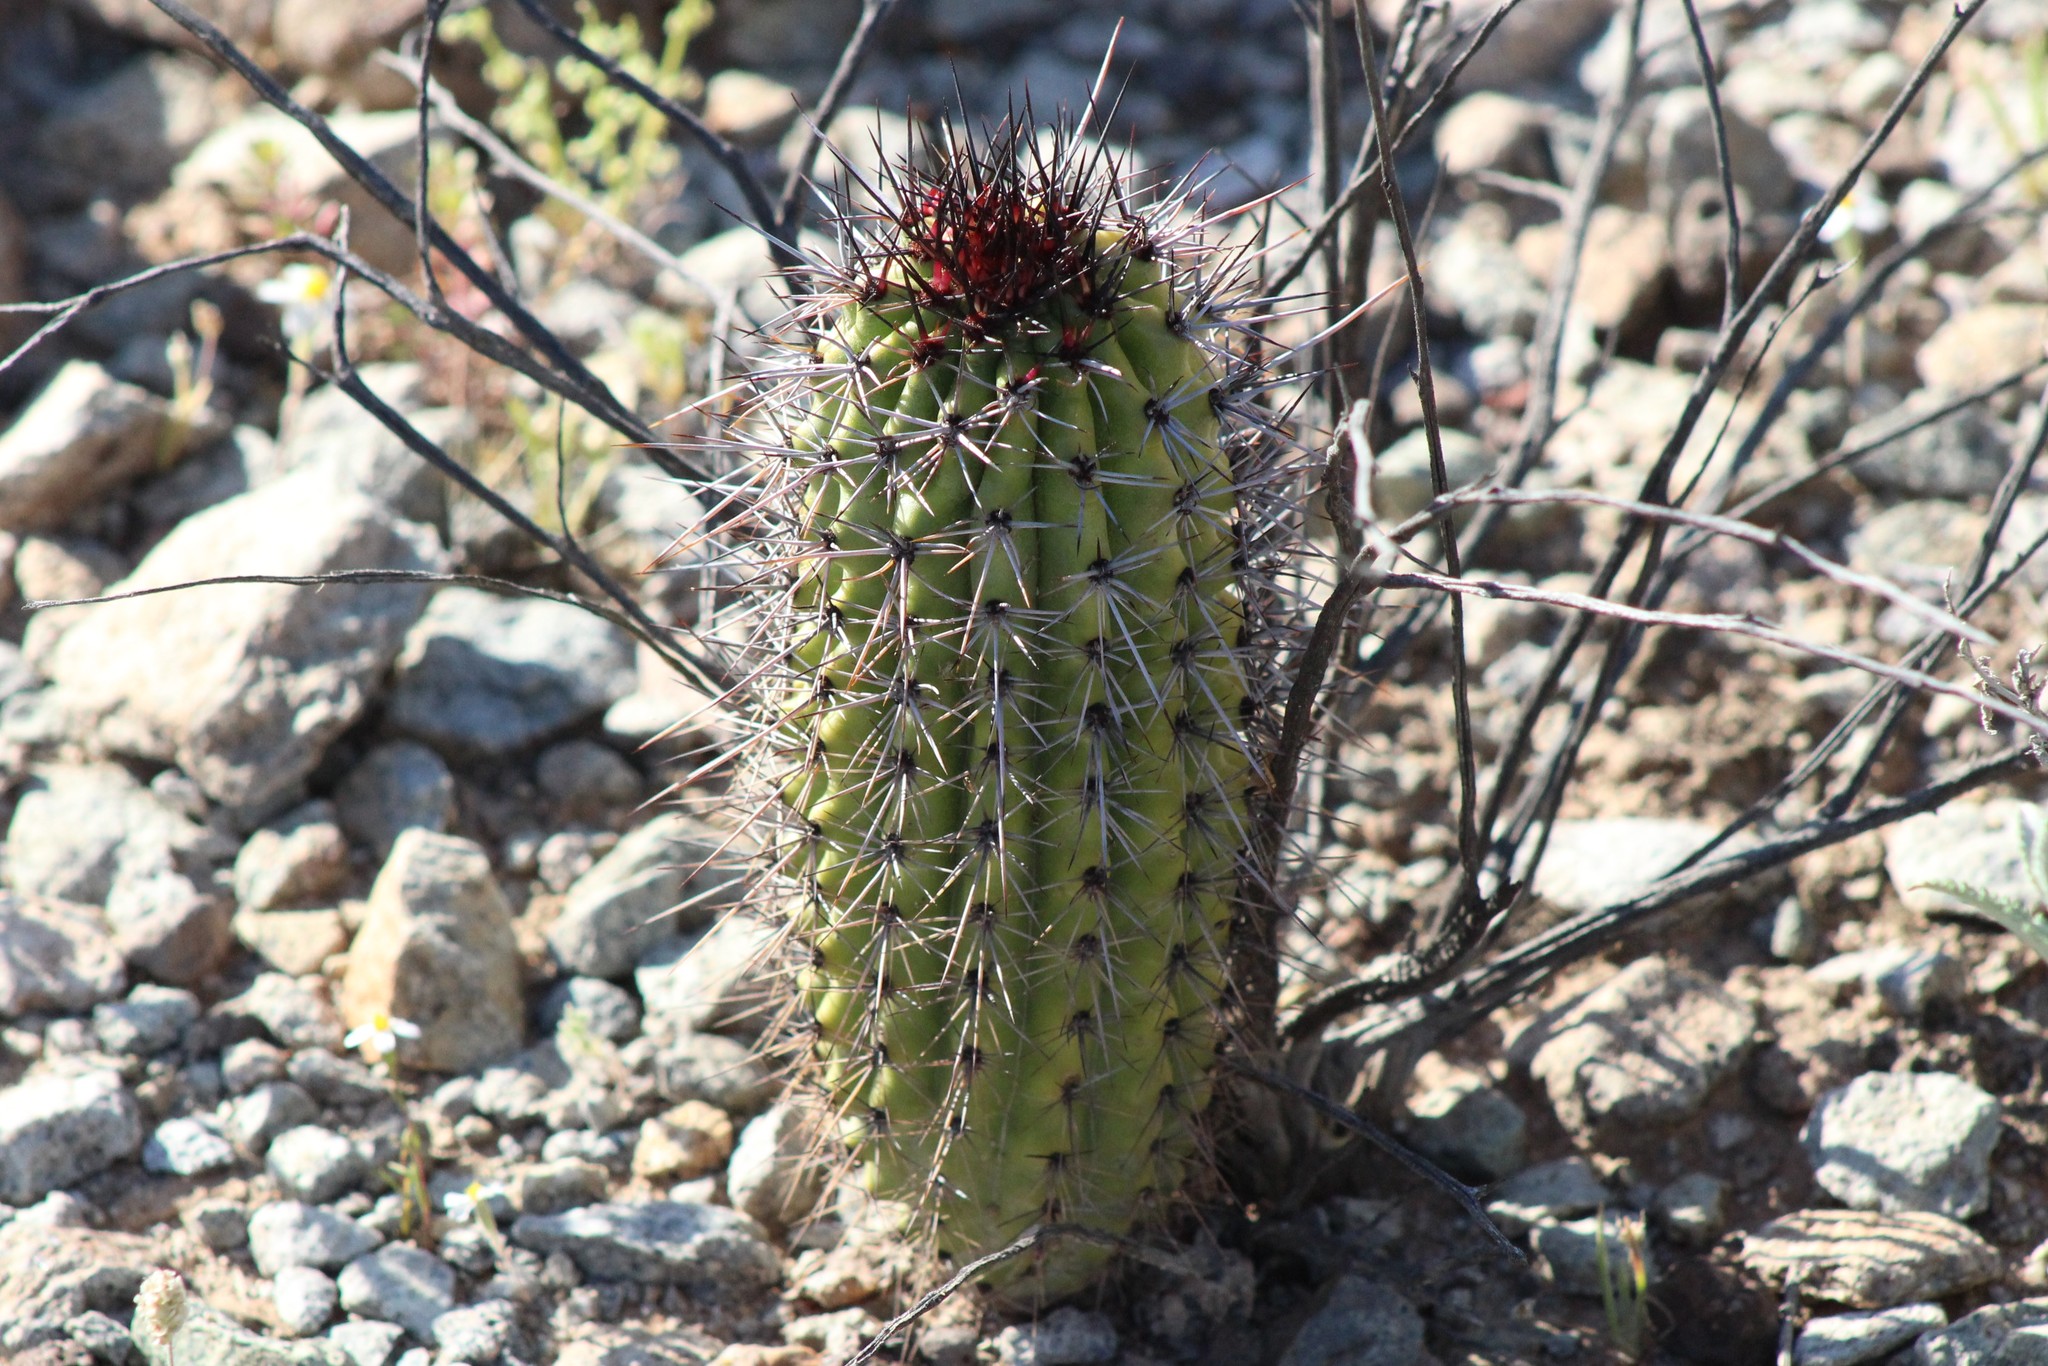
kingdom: Plantae
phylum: Tracheophyta
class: Magnoliopsida
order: Caryophyllales
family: Cactaceae
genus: Stenocereus
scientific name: Stenocereus thurberi
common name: Organ pipe cactus
